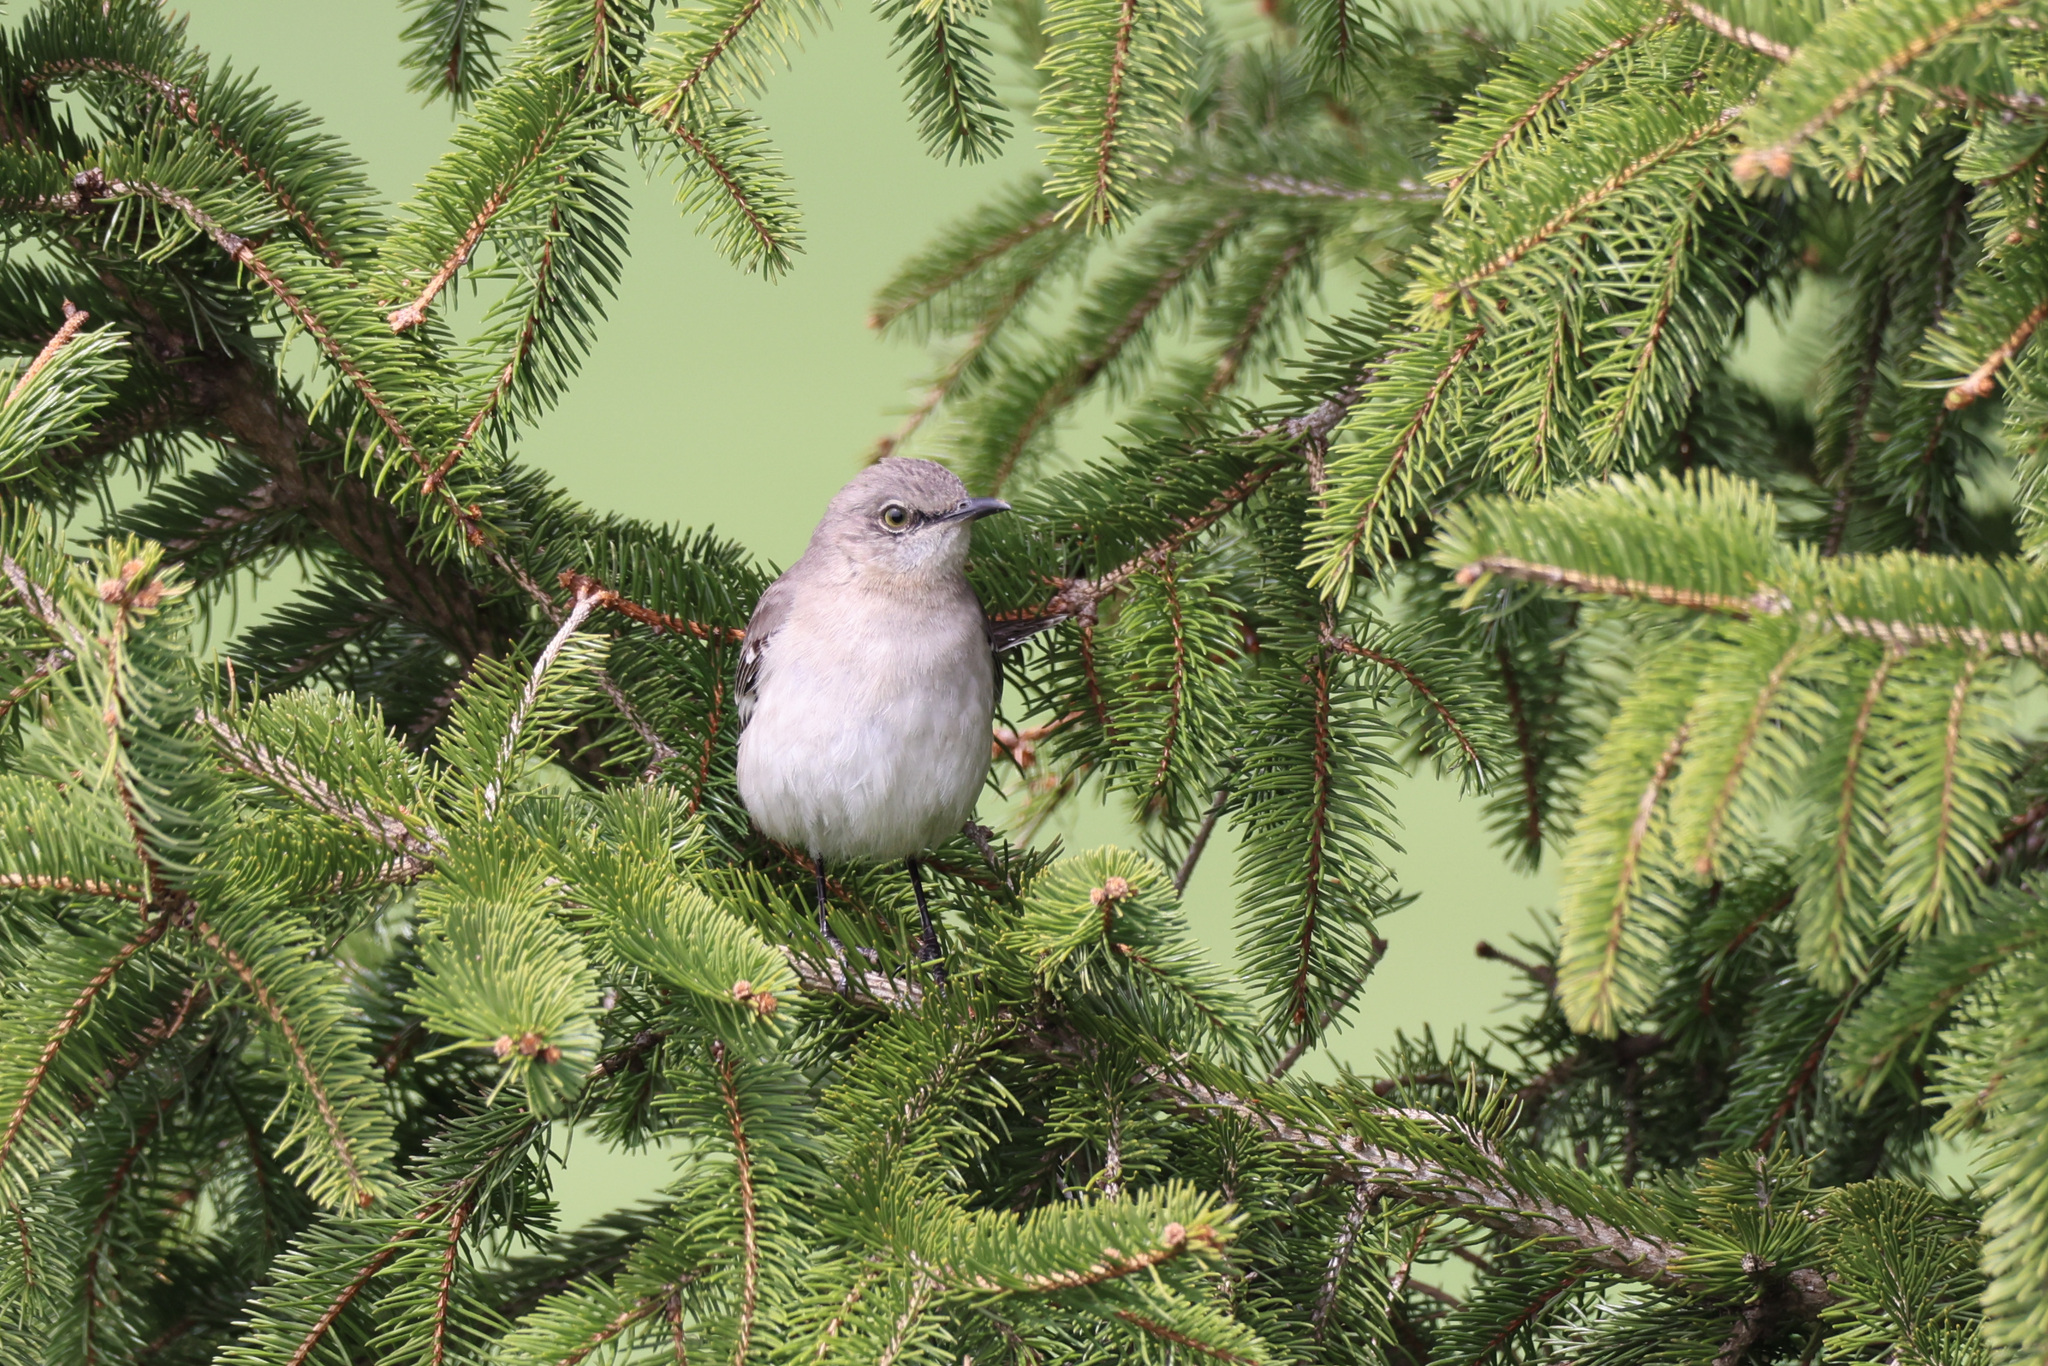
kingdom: Animalia
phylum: Chordata
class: Aves
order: Passeriformes
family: Mimidae
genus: Mimus
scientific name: Mimus polyglottos
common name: Northern mockingbird
